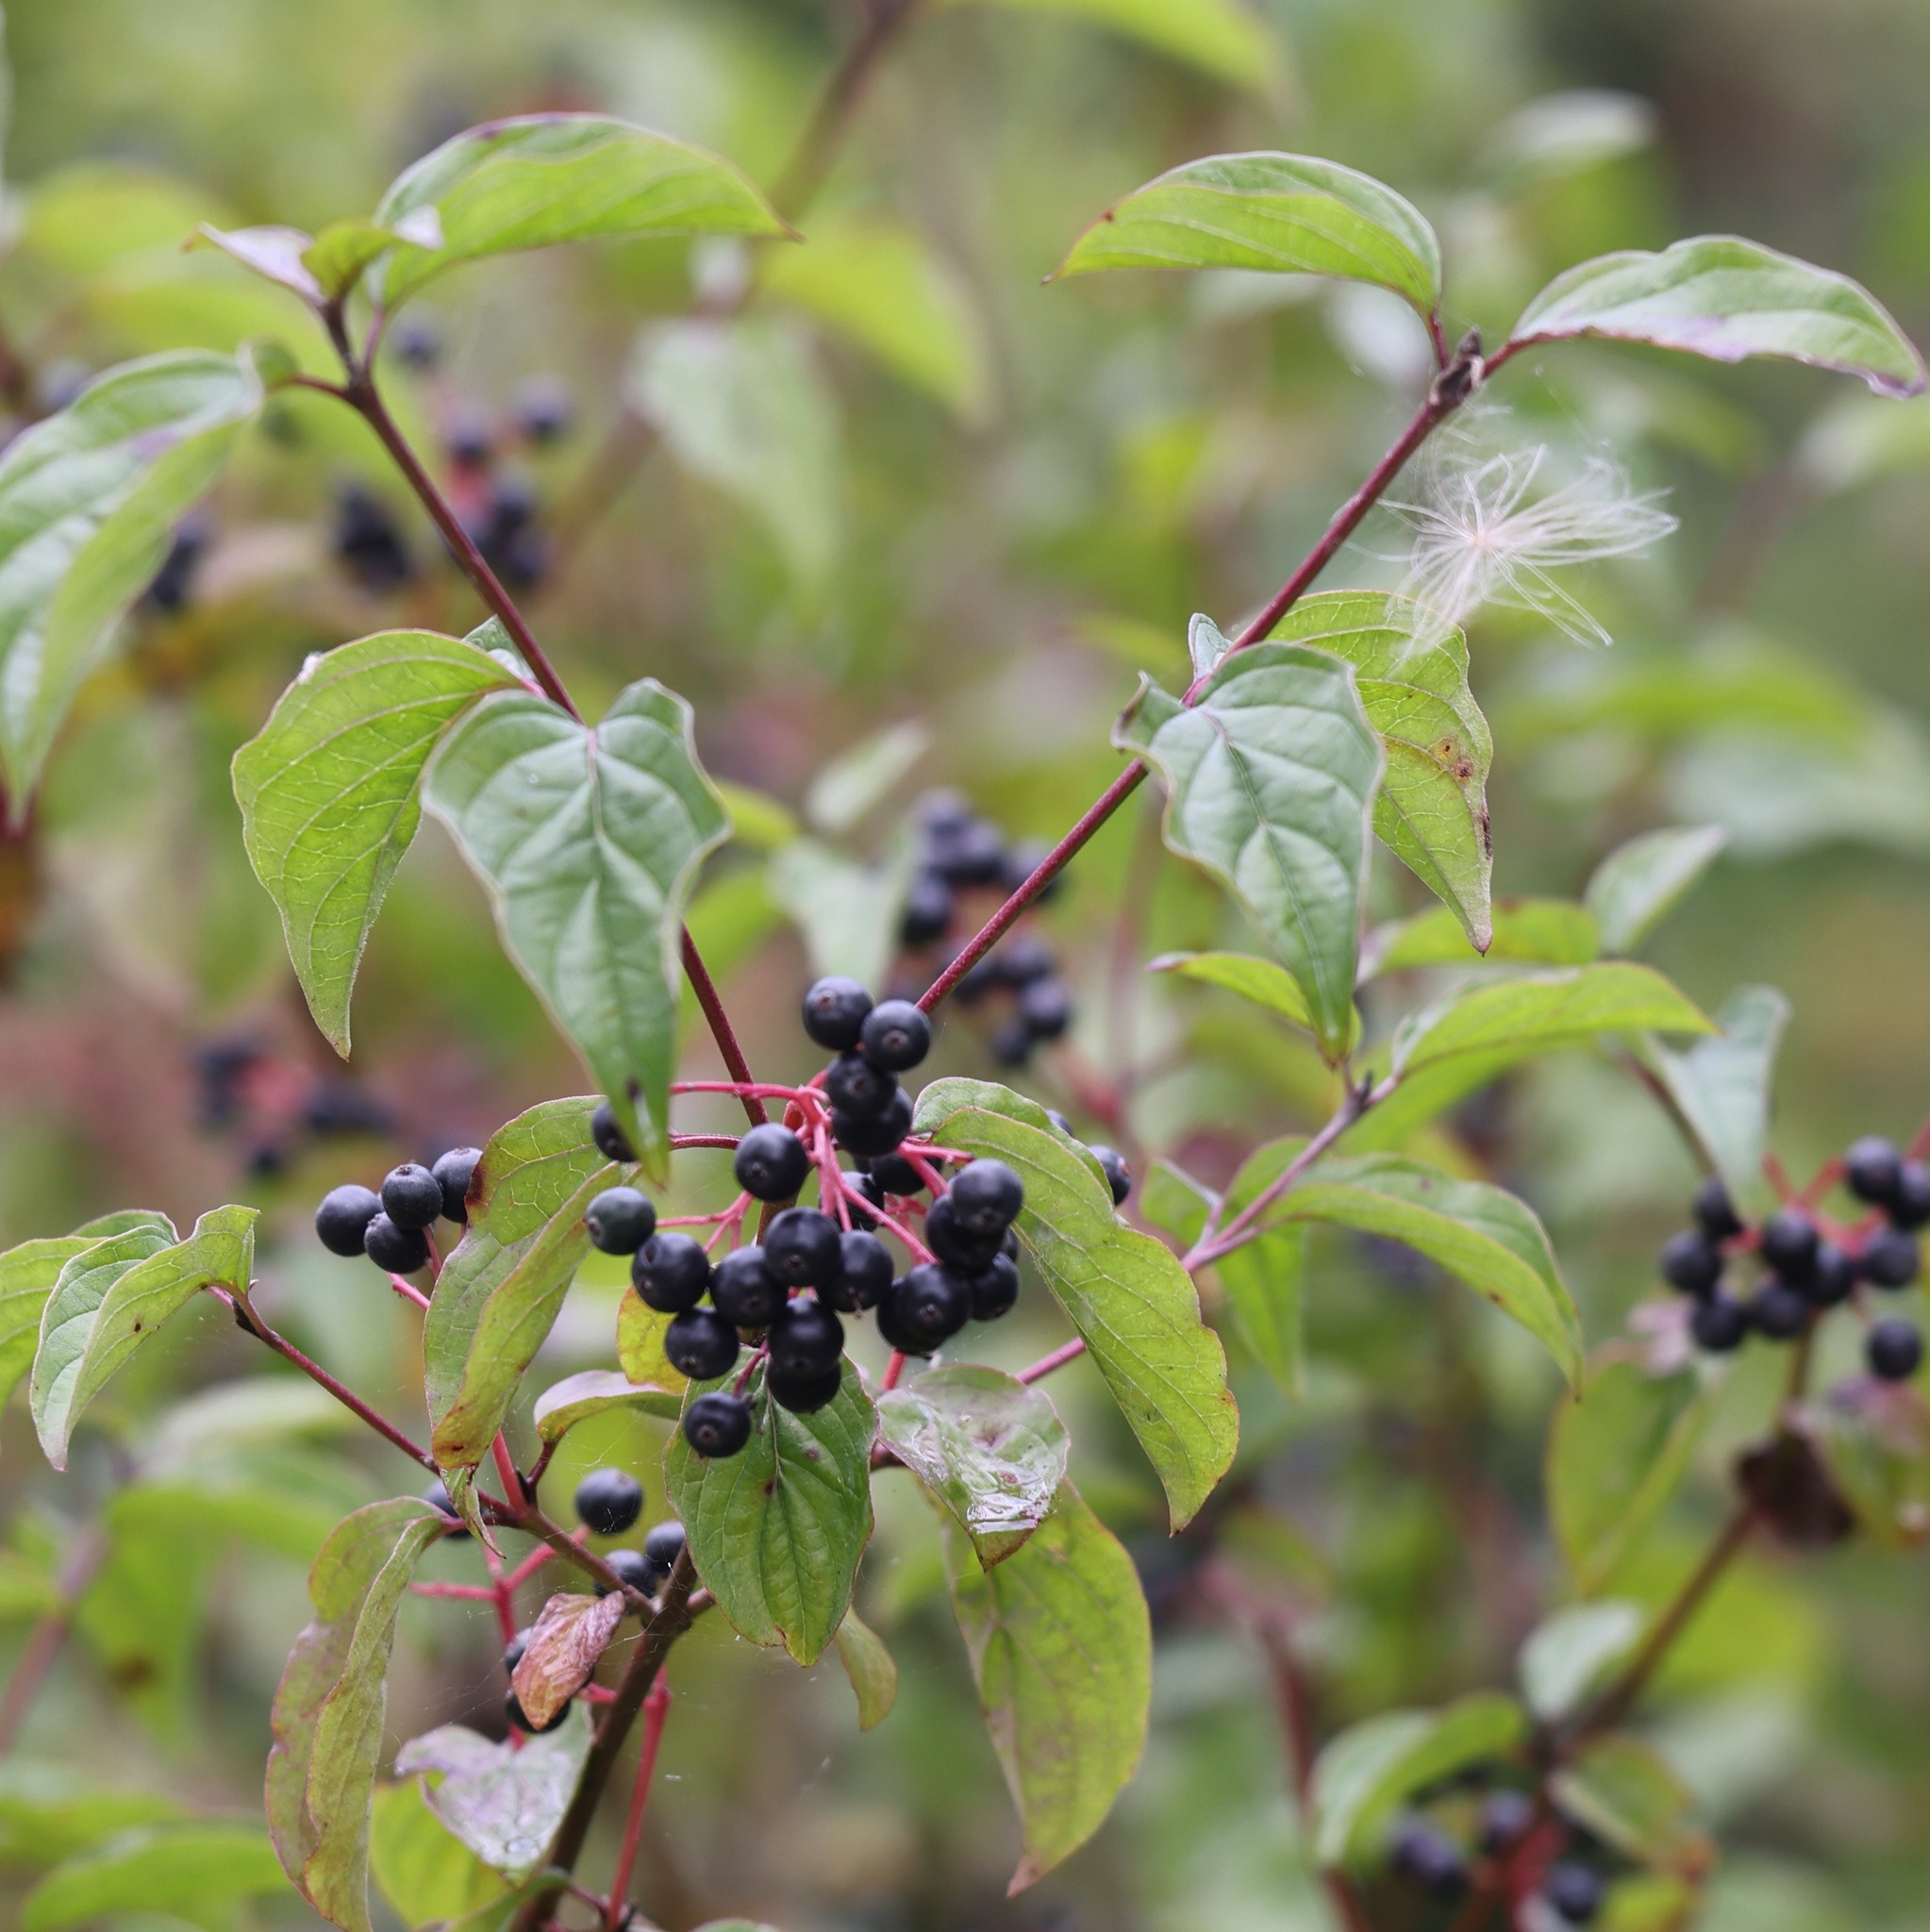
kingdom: Plantae
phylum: Tracheophyta
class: Magnoliopsida
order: Cornales
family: Cornaceae
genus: Cornus
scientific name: Cornus sanguinea
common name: Dogwood
